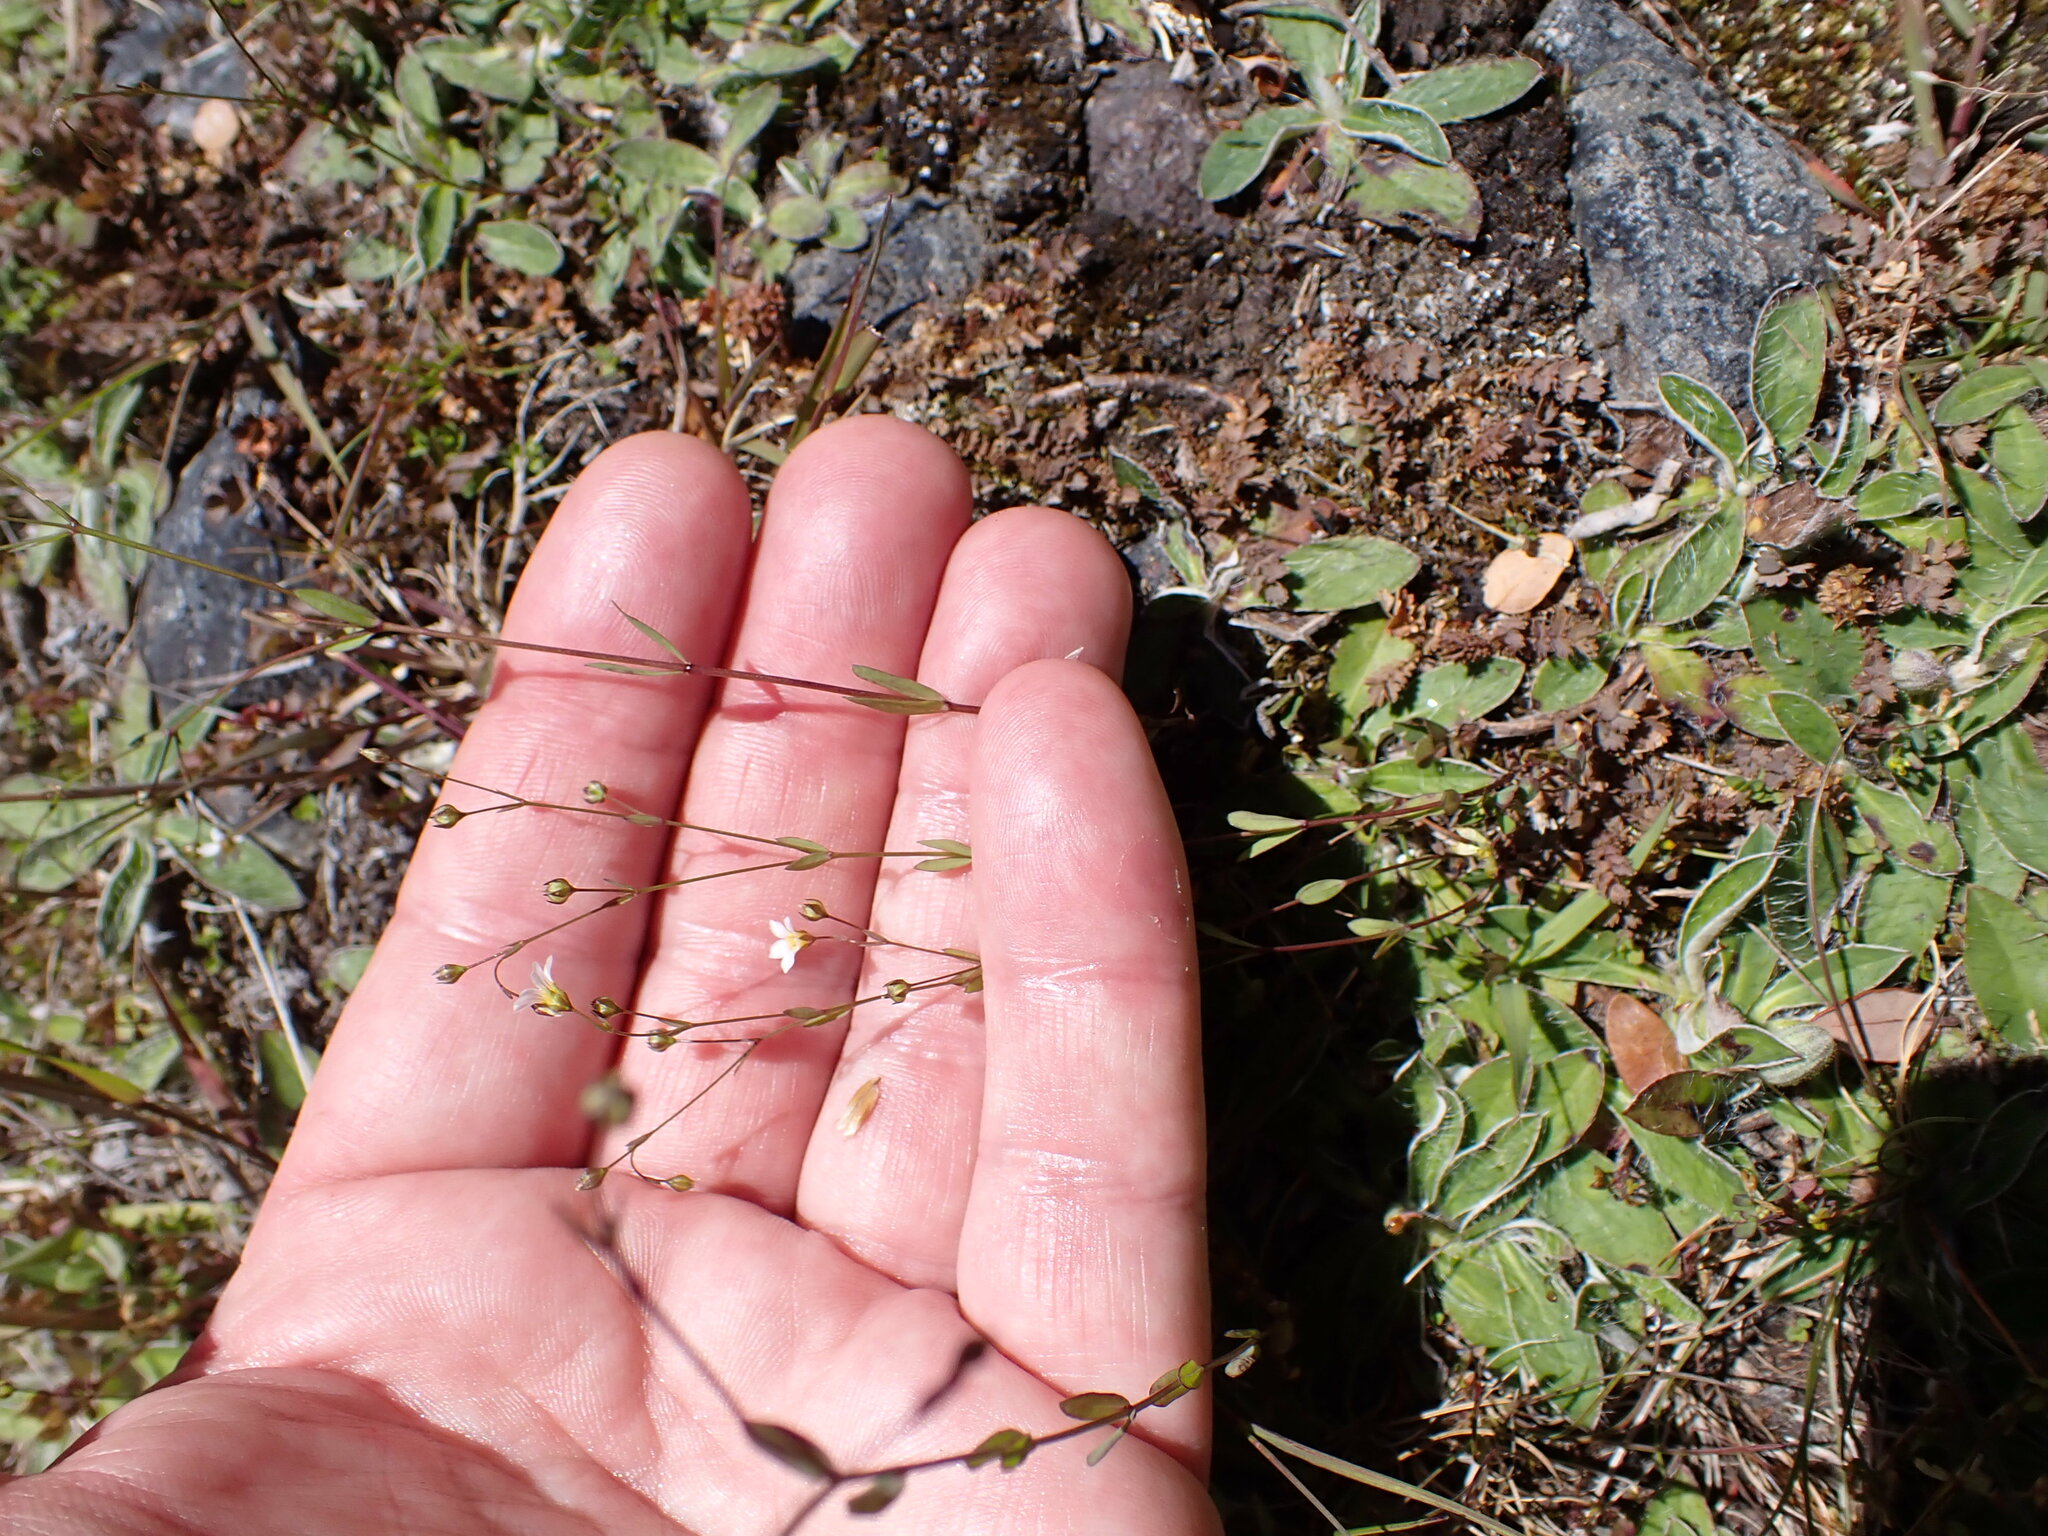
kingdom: Plantae
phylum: Tracheophyta
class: Magnoliopsida
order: Malpighiales
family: Linaceae
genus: Linum
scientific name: Linum catharticum
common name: Fairy flax
